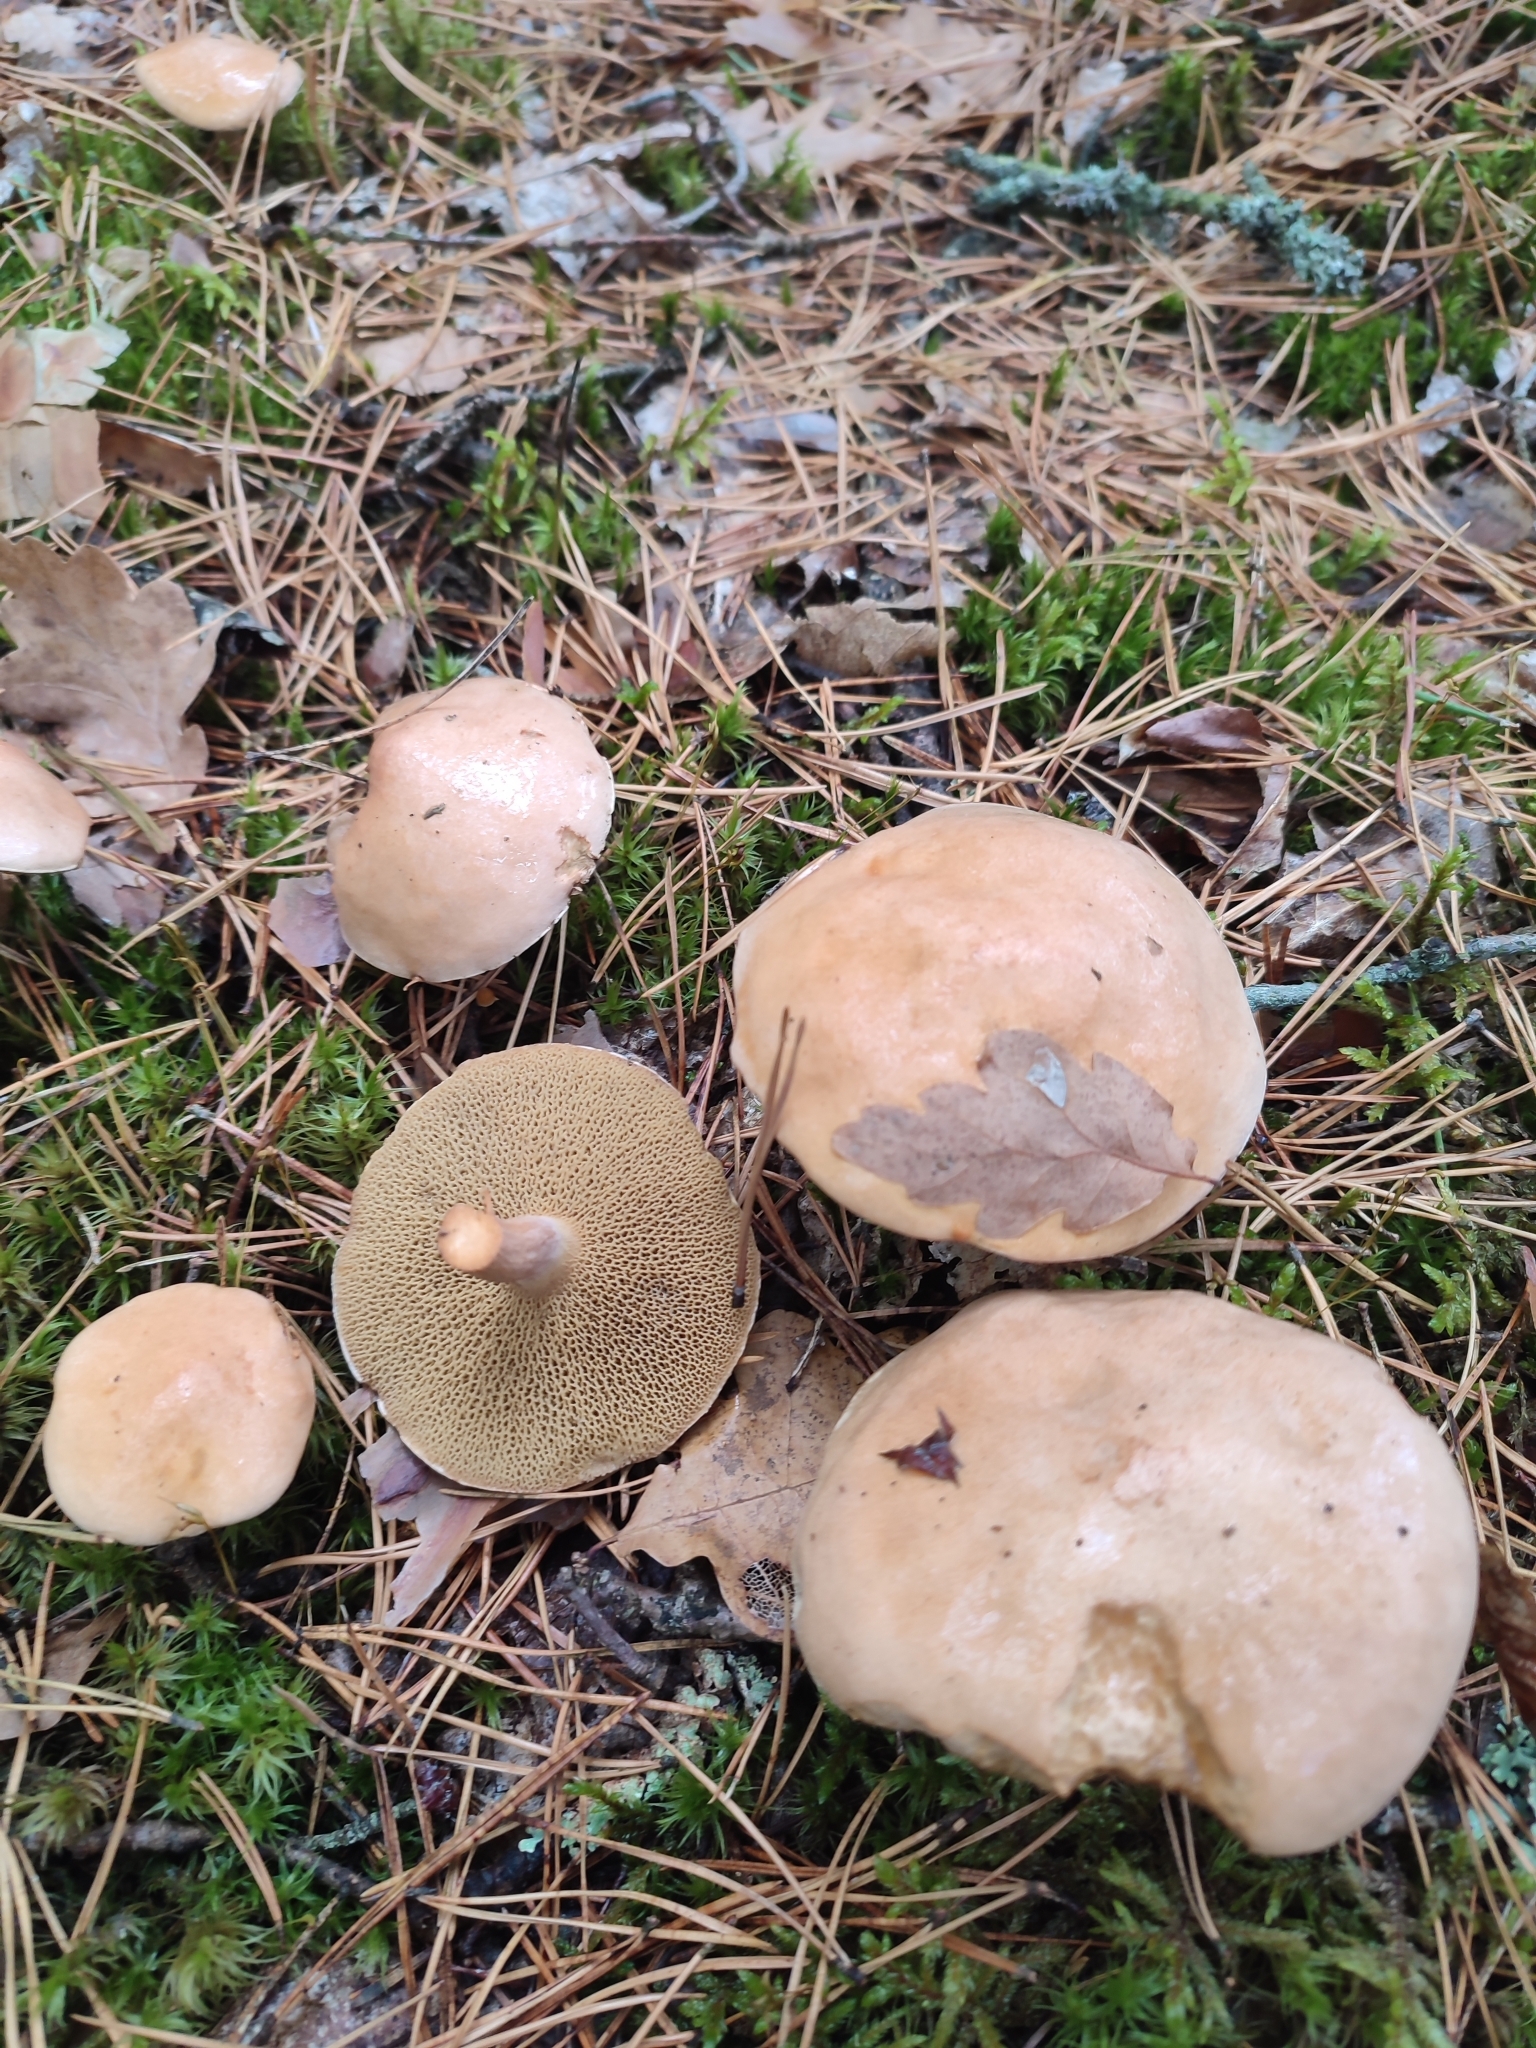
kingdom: Fungi
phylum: Basidiomycota
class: Agaricomycetes
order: Boletales
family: Suillaceae
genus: Suillus
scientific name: Suillus bovinus
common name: Bovine bolete
